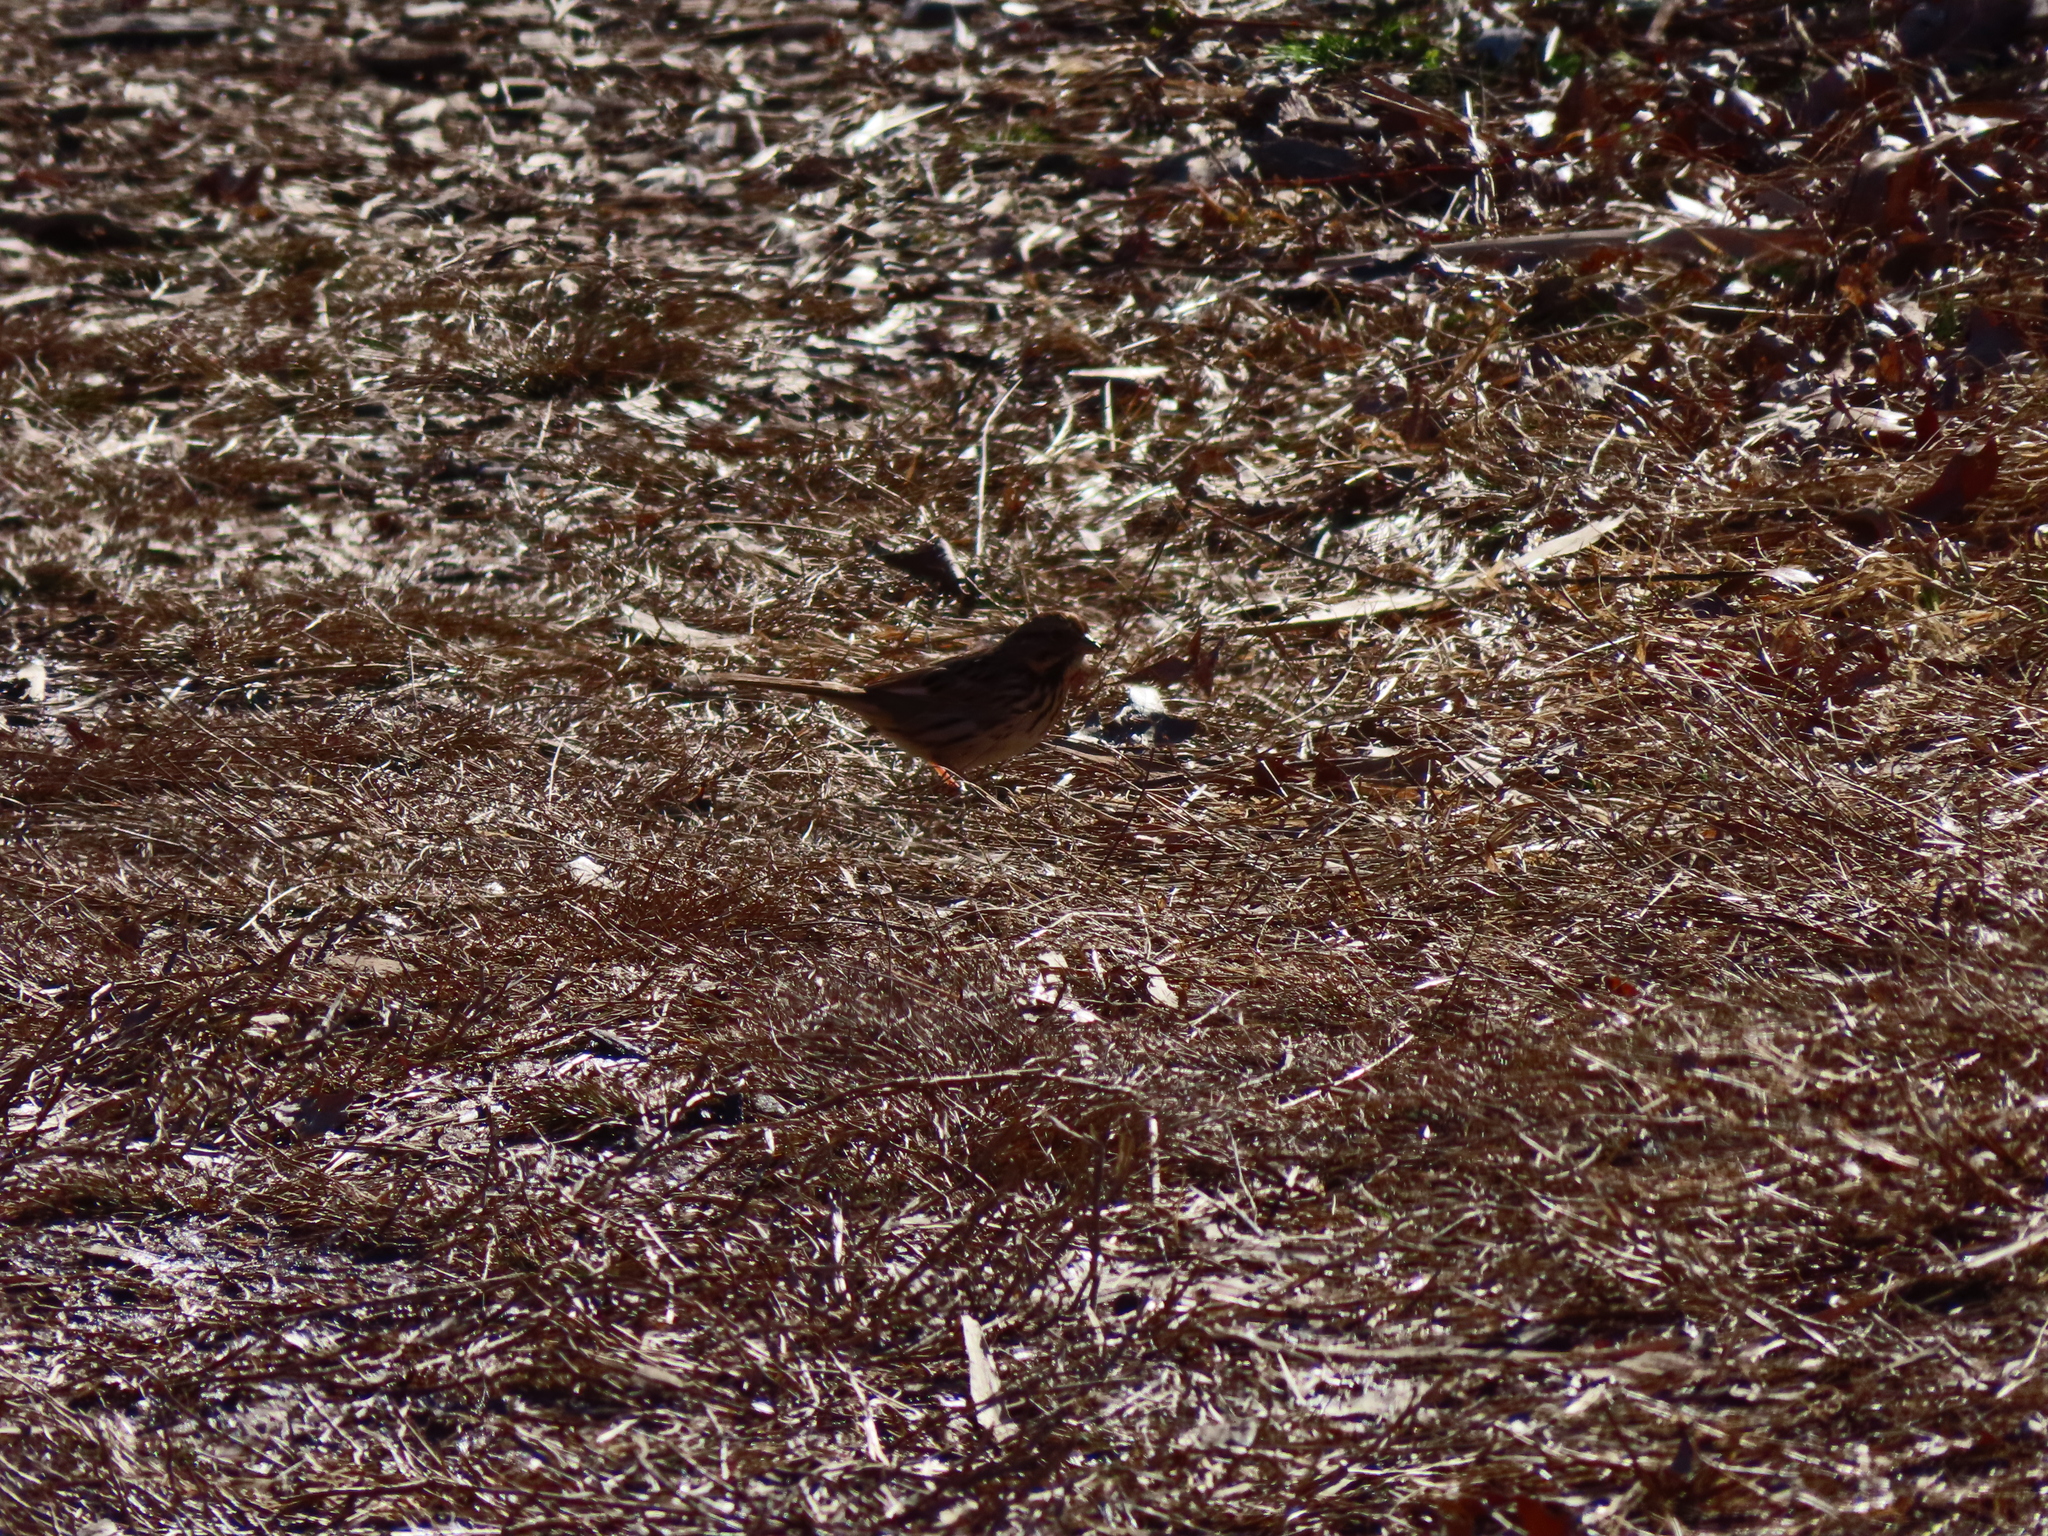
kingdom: Animalia
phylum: Chordata
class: Aves
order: Passeriformes
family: Passerellidae
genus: Melospiza
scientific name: Melospiza melodia
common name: Song sparrow
